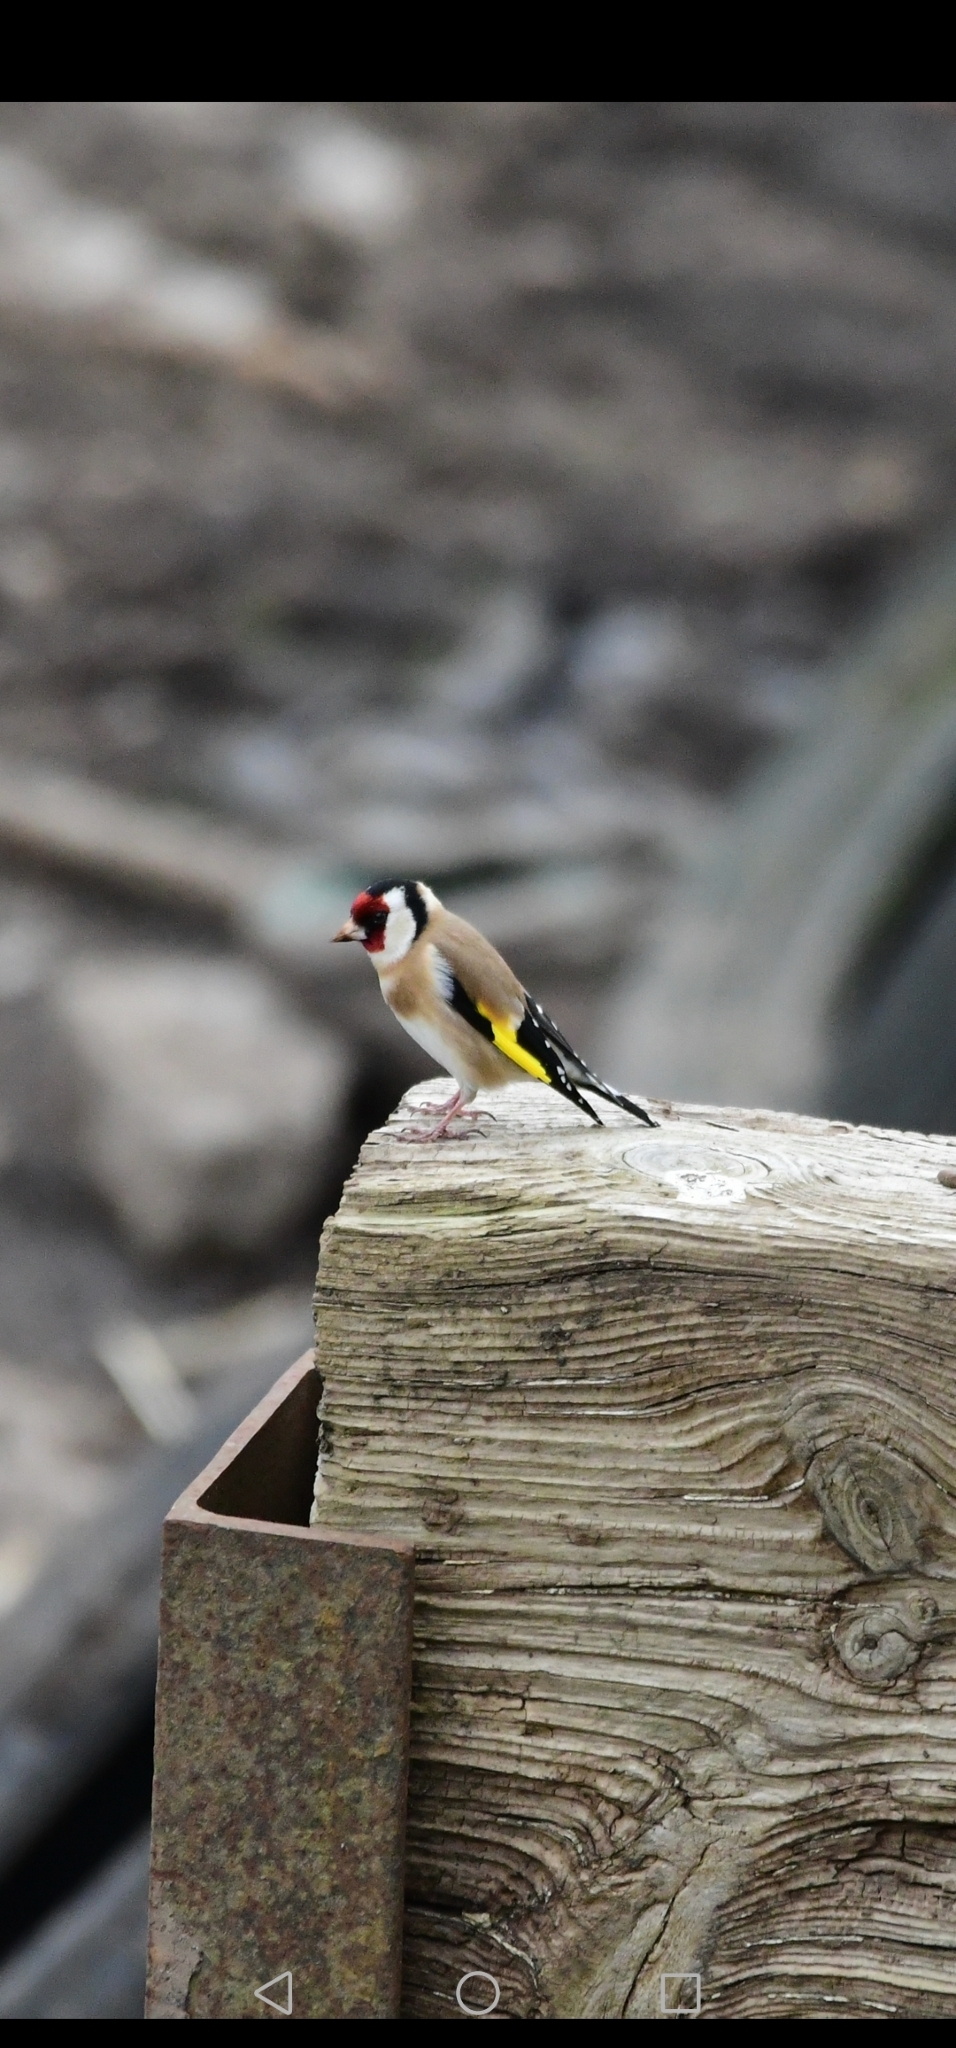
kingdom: Animalia
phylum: Chordata
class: Aves
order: Passeriformes
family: Fringillidae
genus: Carduelis
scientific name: Carduelis carduelis
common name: European goldfinch
